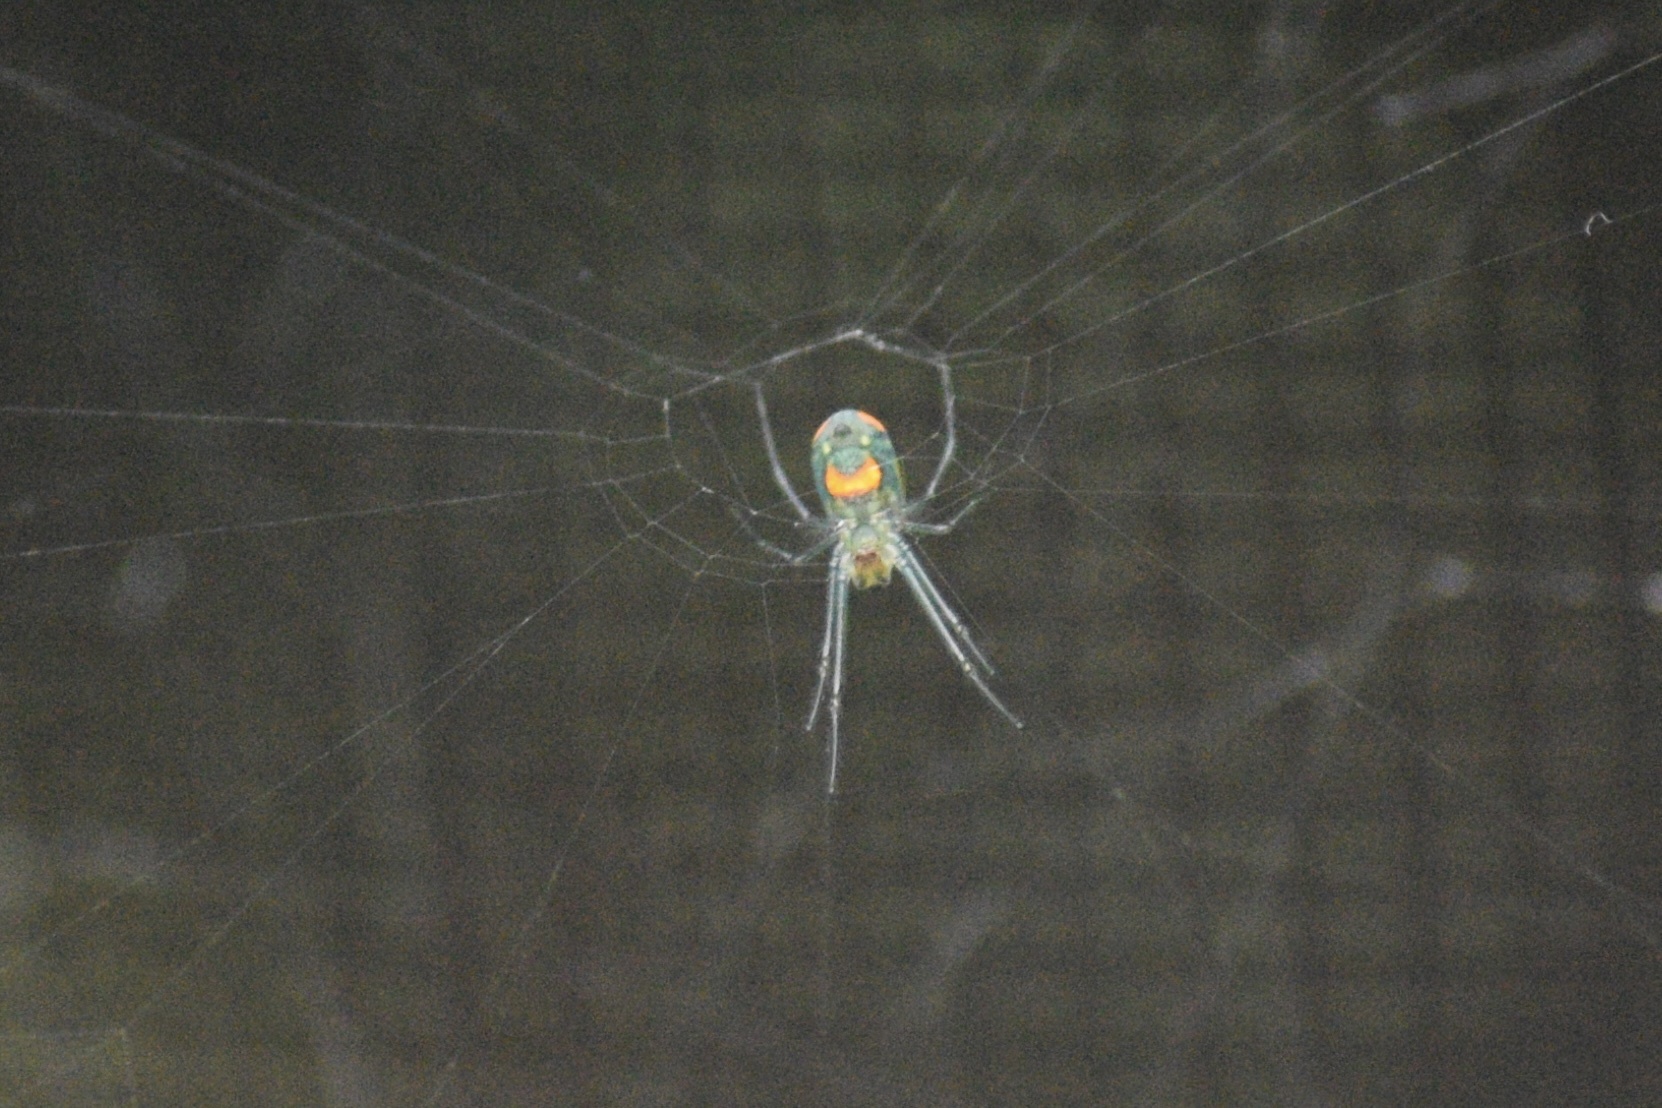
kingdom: Animalia
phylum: Arthropoda
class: Arachnida
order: Araneae
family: Tetragnathidae
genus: Leucauge
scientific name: Leucauge argyrobapta
